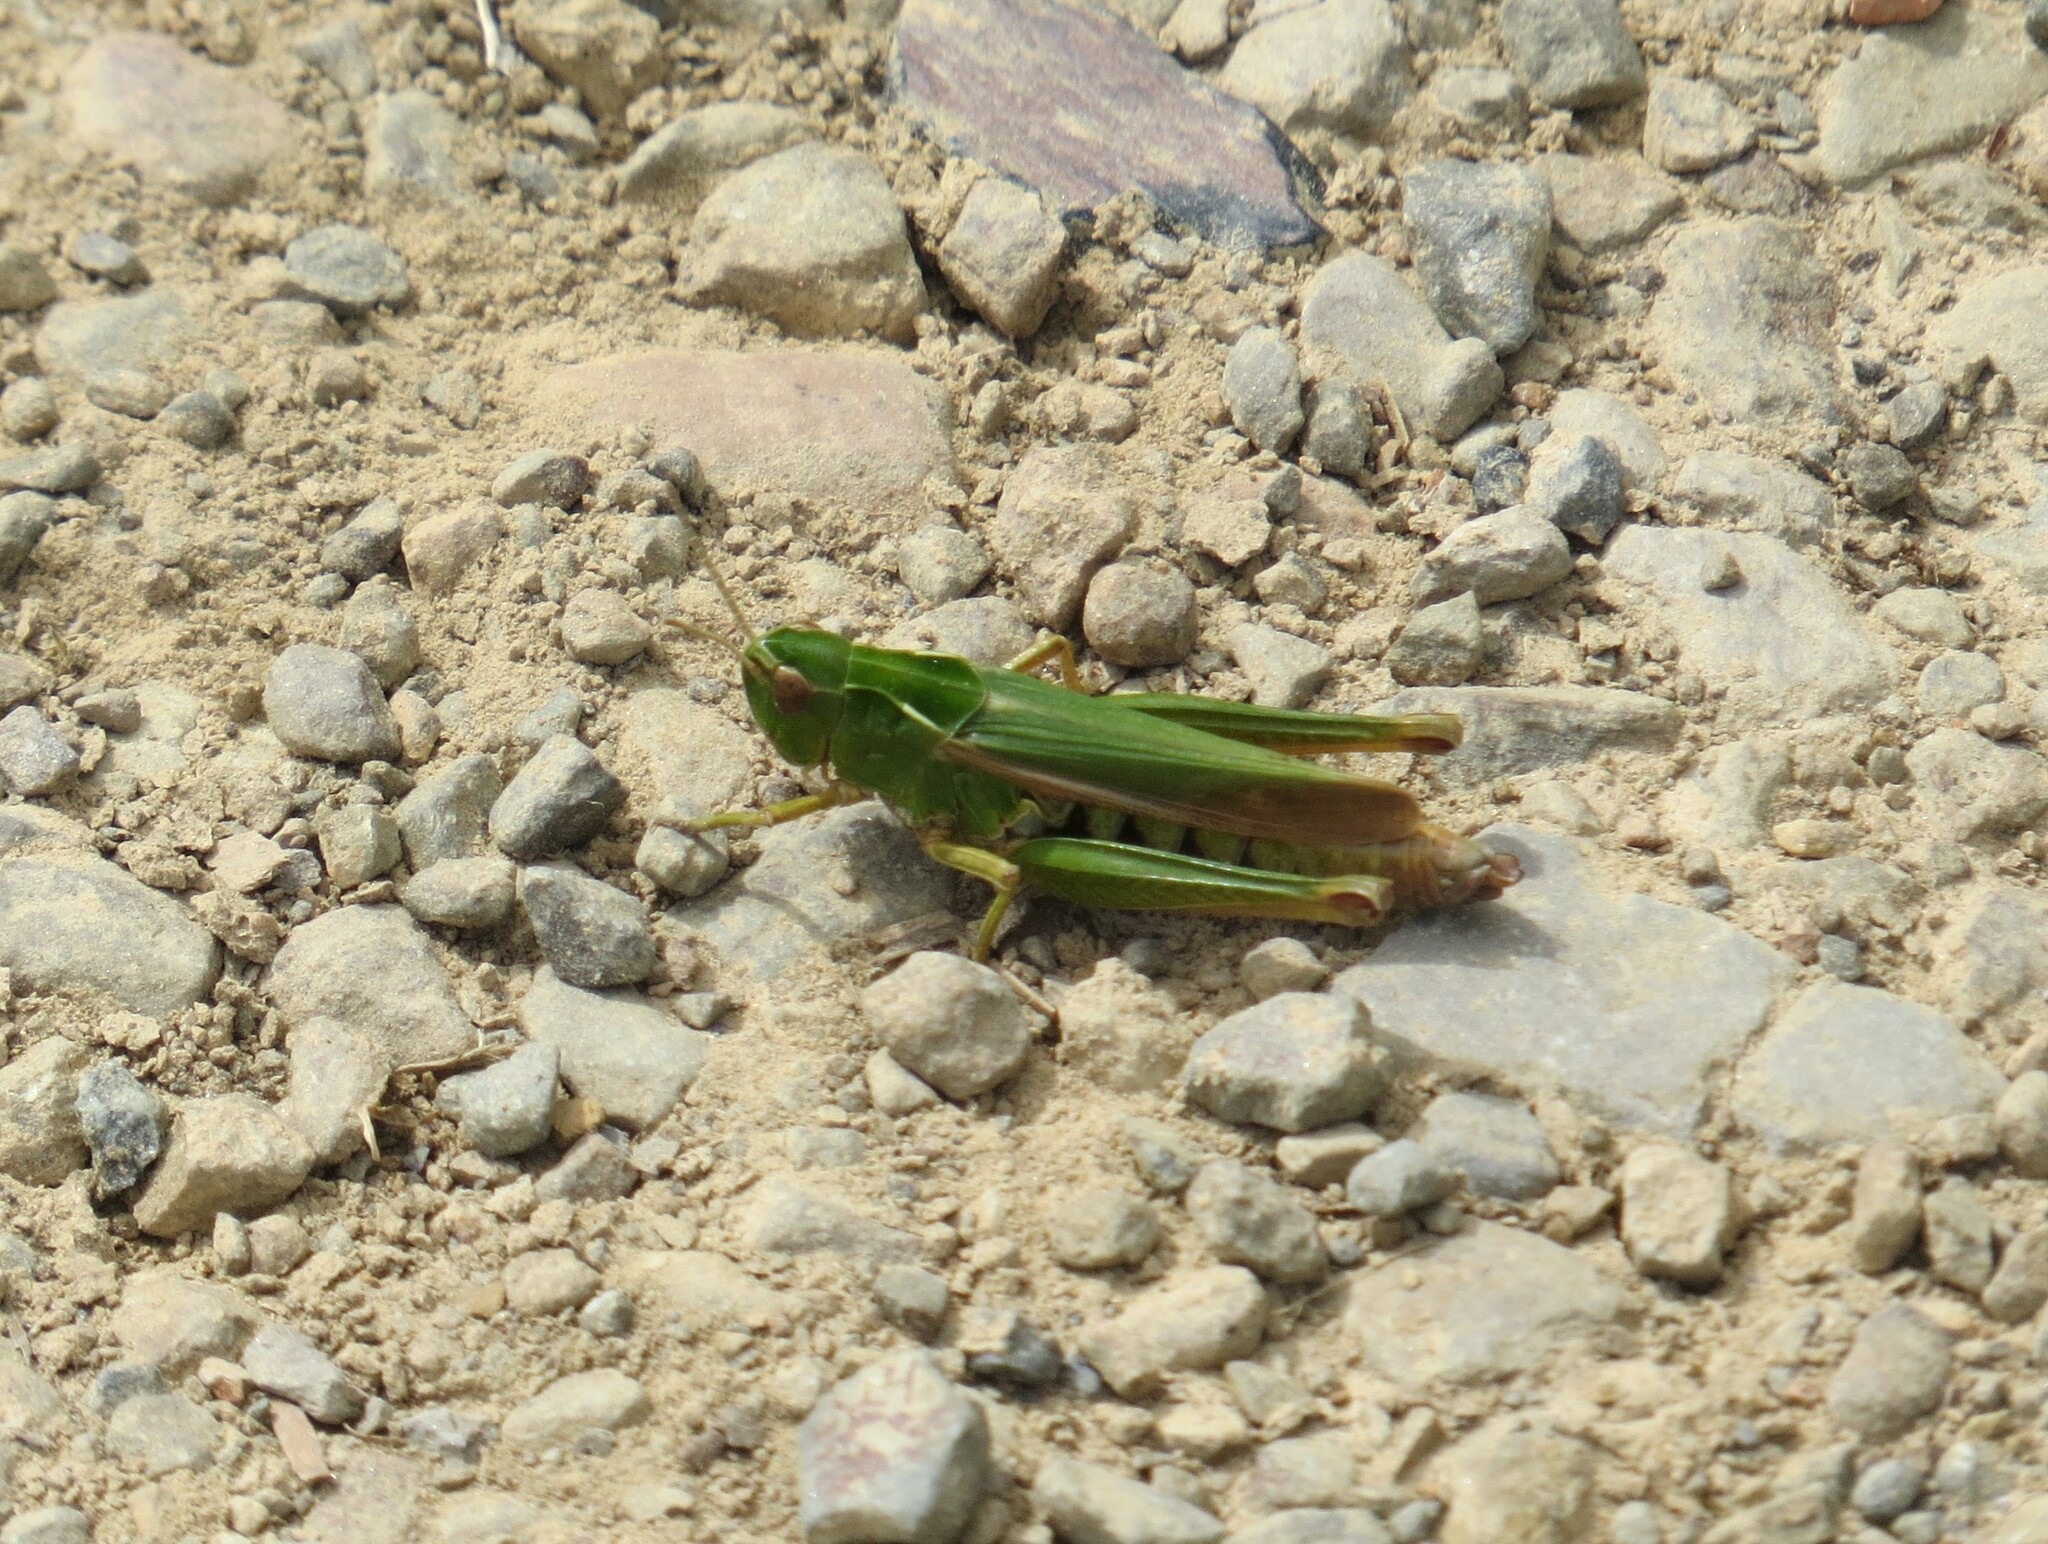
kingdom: Animalia
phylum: Arthropoda
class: Insecta
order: Orthoptera
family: Acrididae
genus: Omocestus
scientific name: Omocestus viridulus
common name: Common green grasshopper
